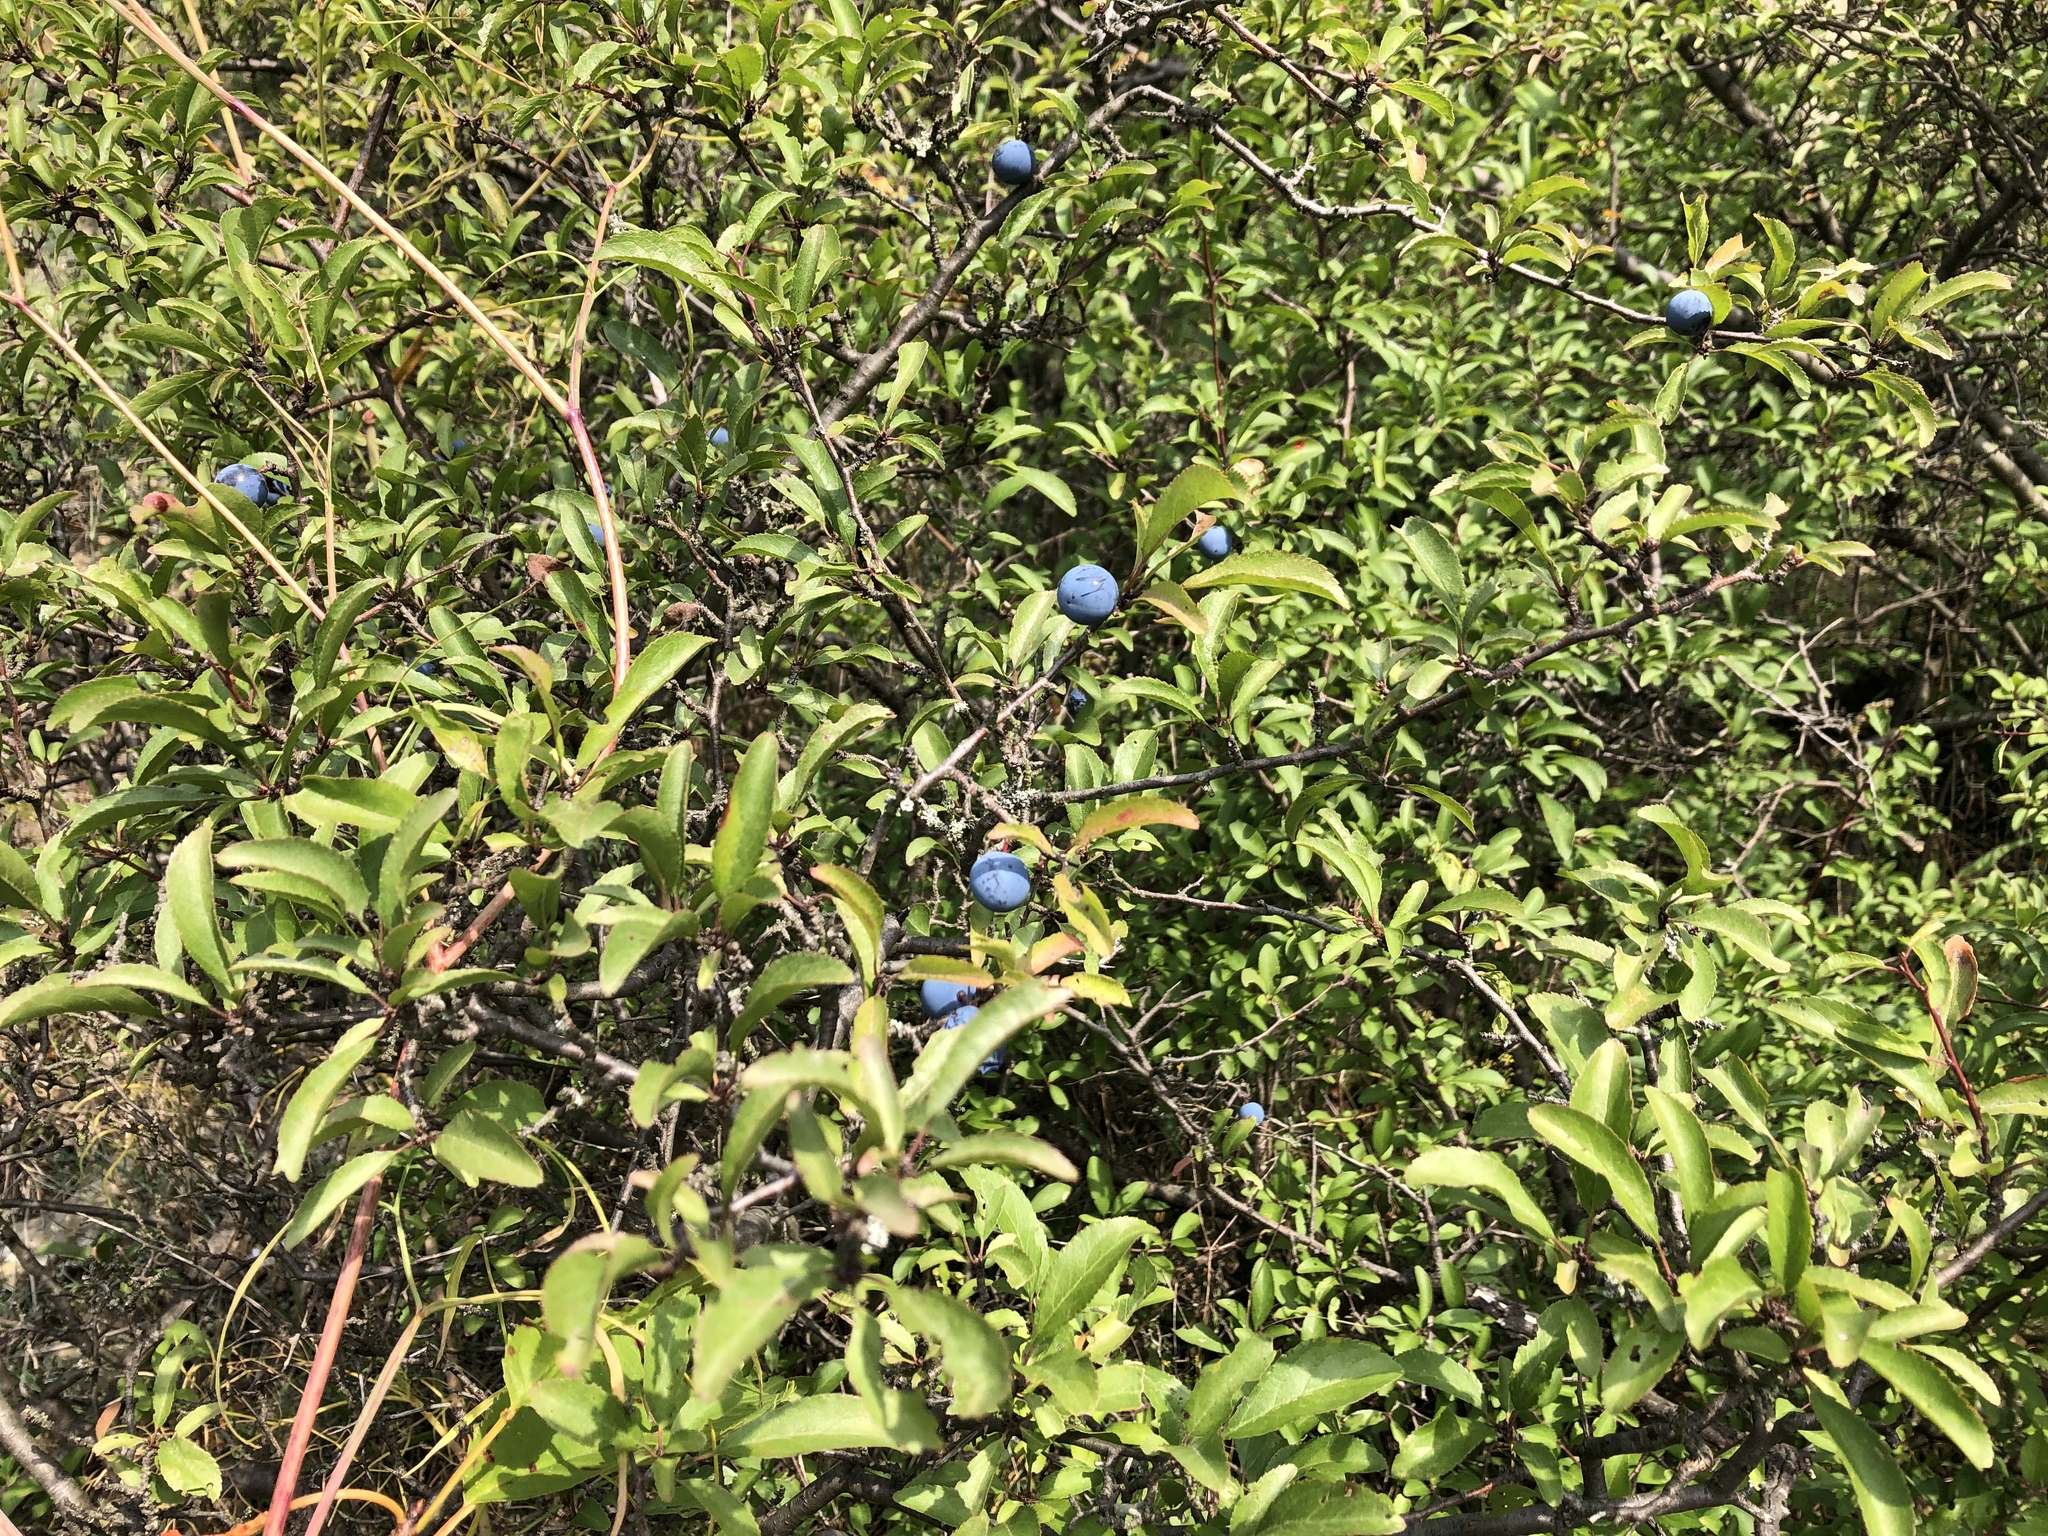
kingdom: Plantae
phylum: Tracheophyta
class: Magnoliopsida
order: Rosales
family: Rosaceae
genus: Prunus
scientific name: Prunus spinosa
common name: Blackthorn
